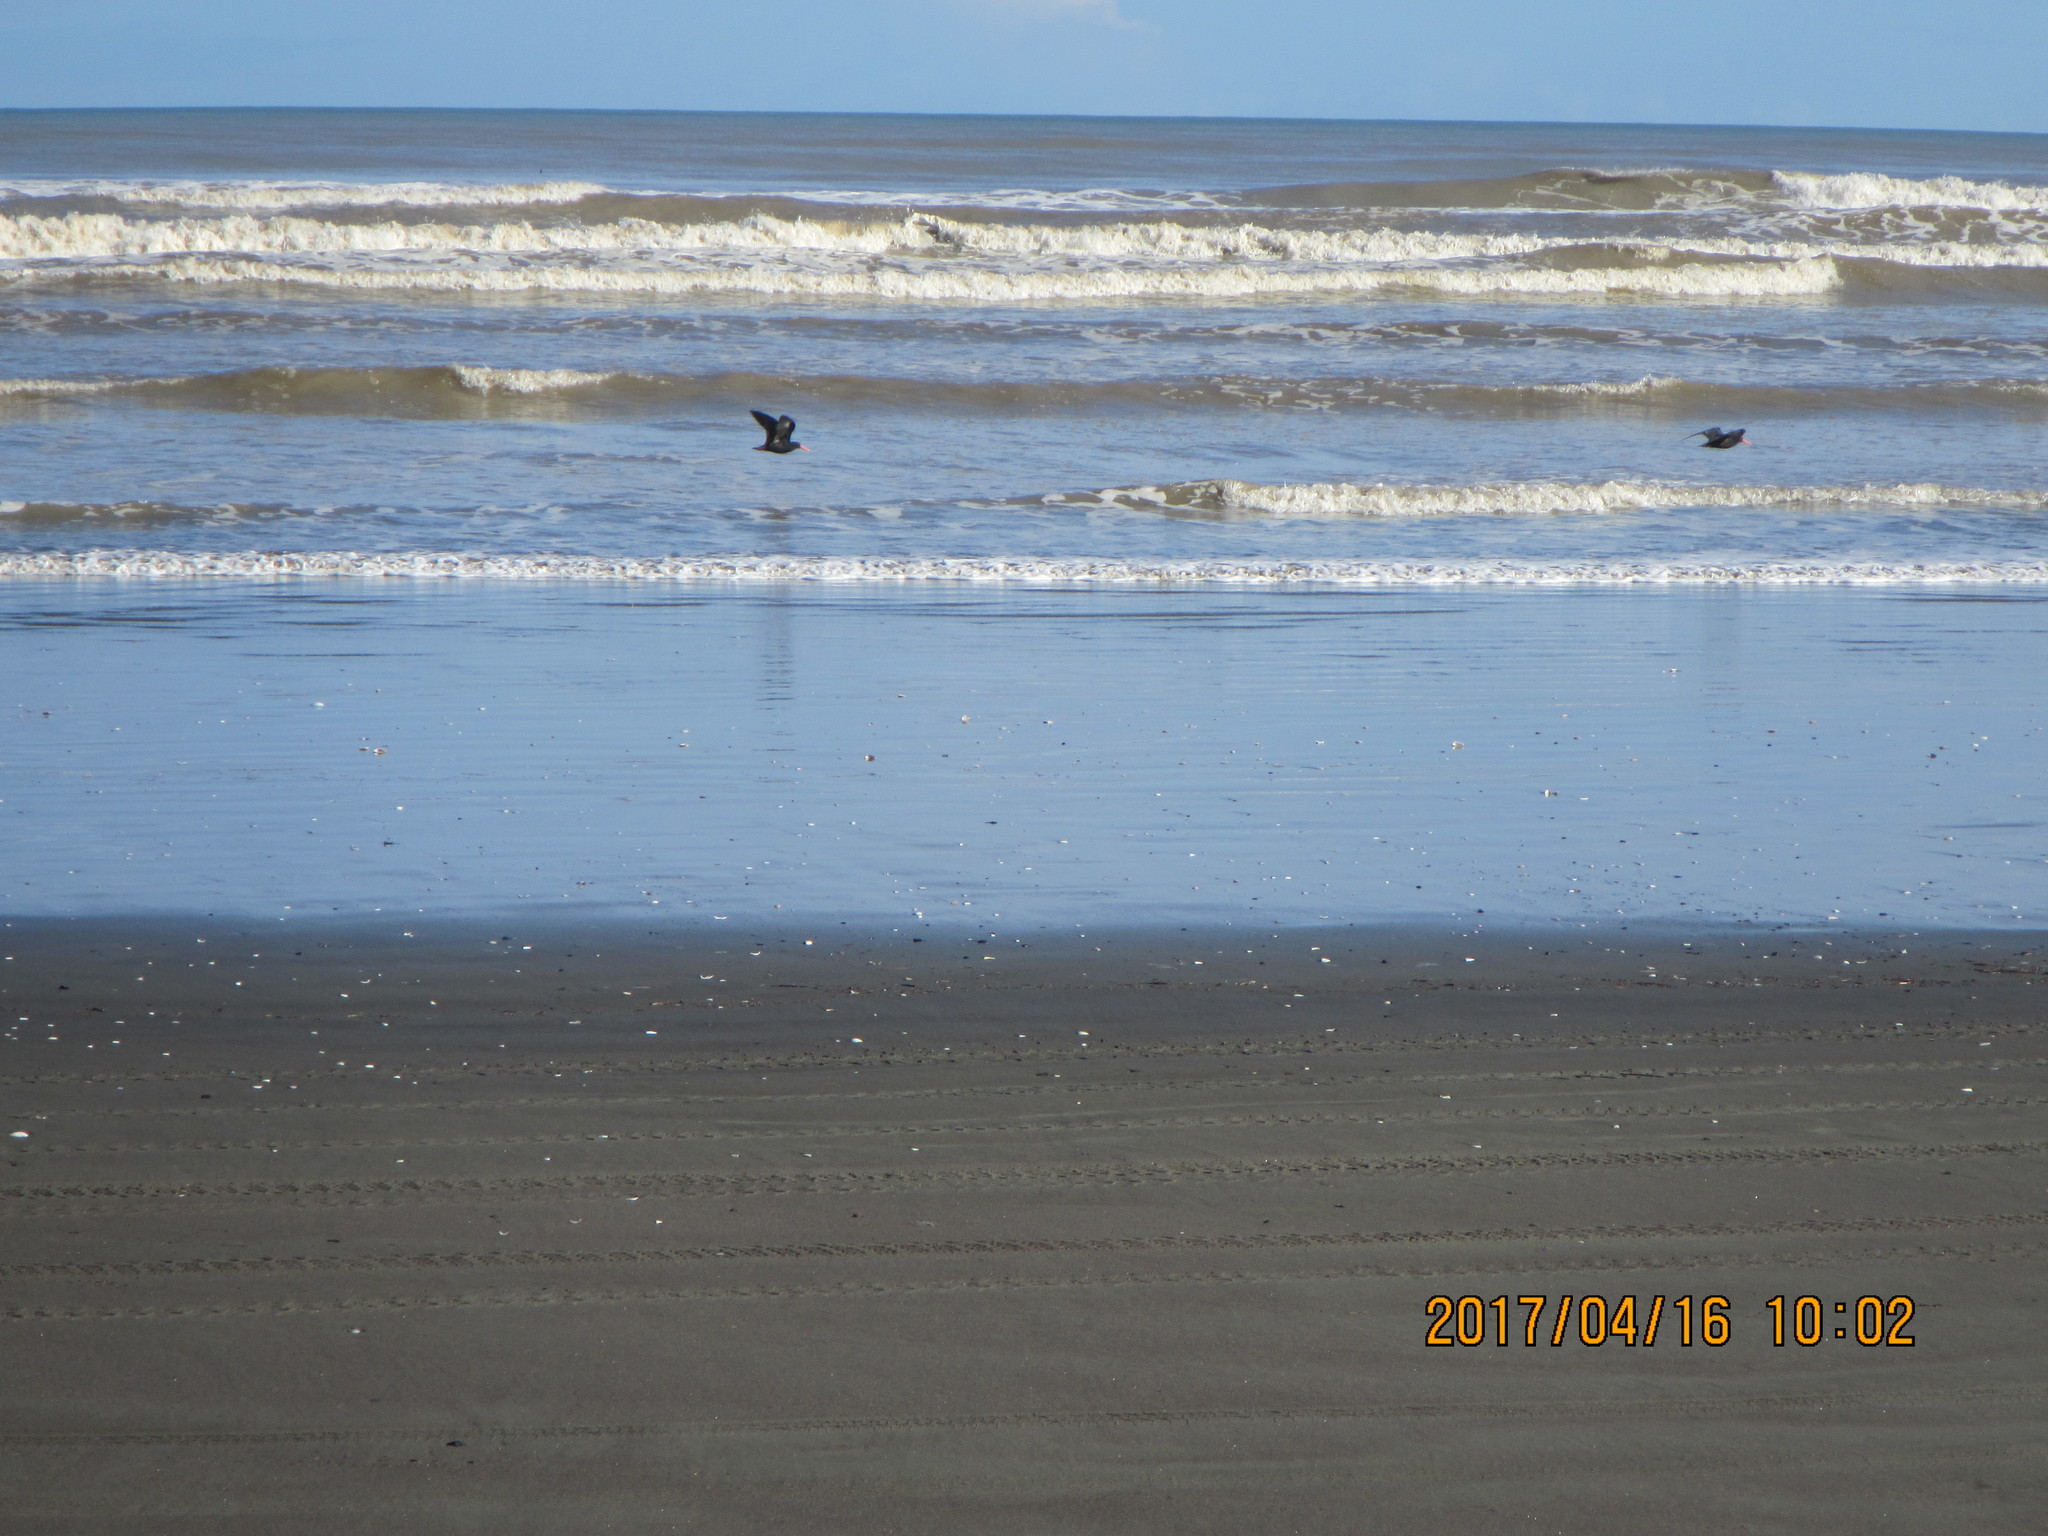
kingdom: Animalia
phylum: Chordata
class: Aves
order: Charadriiformes
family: Haematopodidae
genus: Haematopus
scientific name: Haematopus unicolor
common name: Variable oystercatcher
